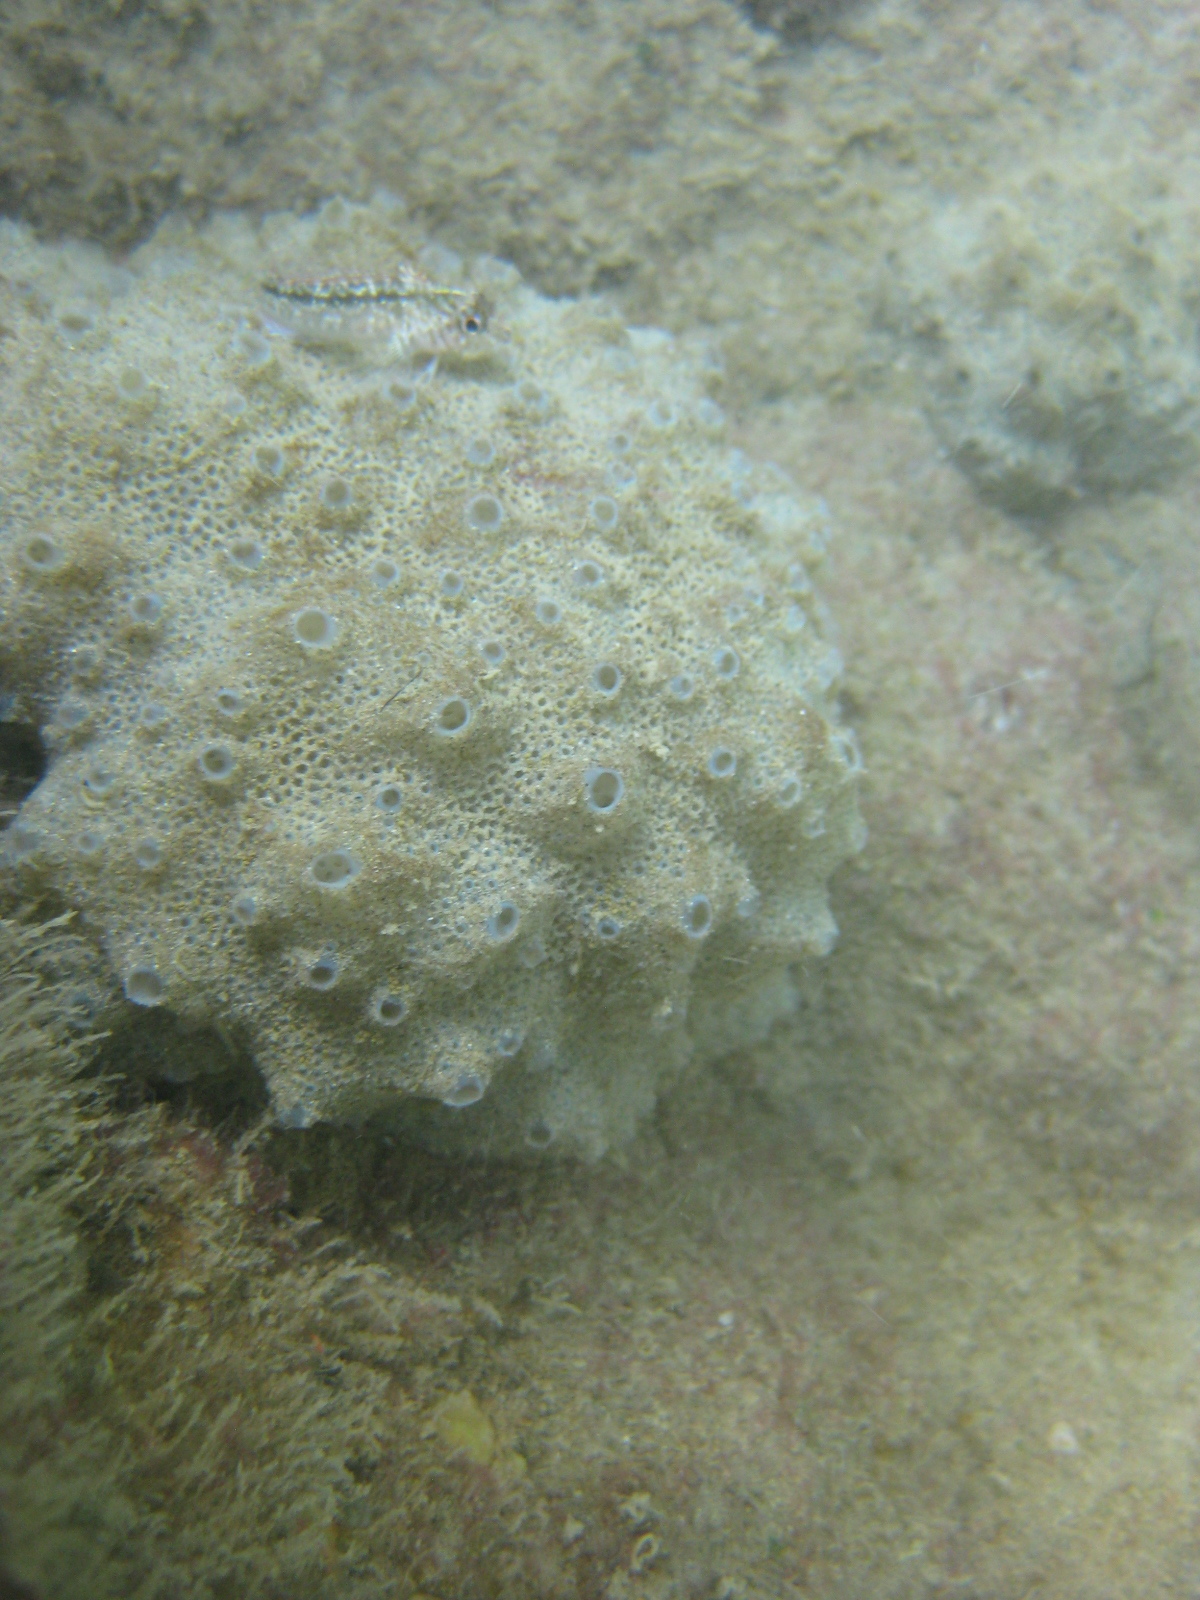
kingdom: Animalia
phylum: Chordata
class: Ascidiacea
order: Aplousobranchia
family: Polyclinidae
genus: Polyclinum
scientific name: Polyclinum novaezelandiae
